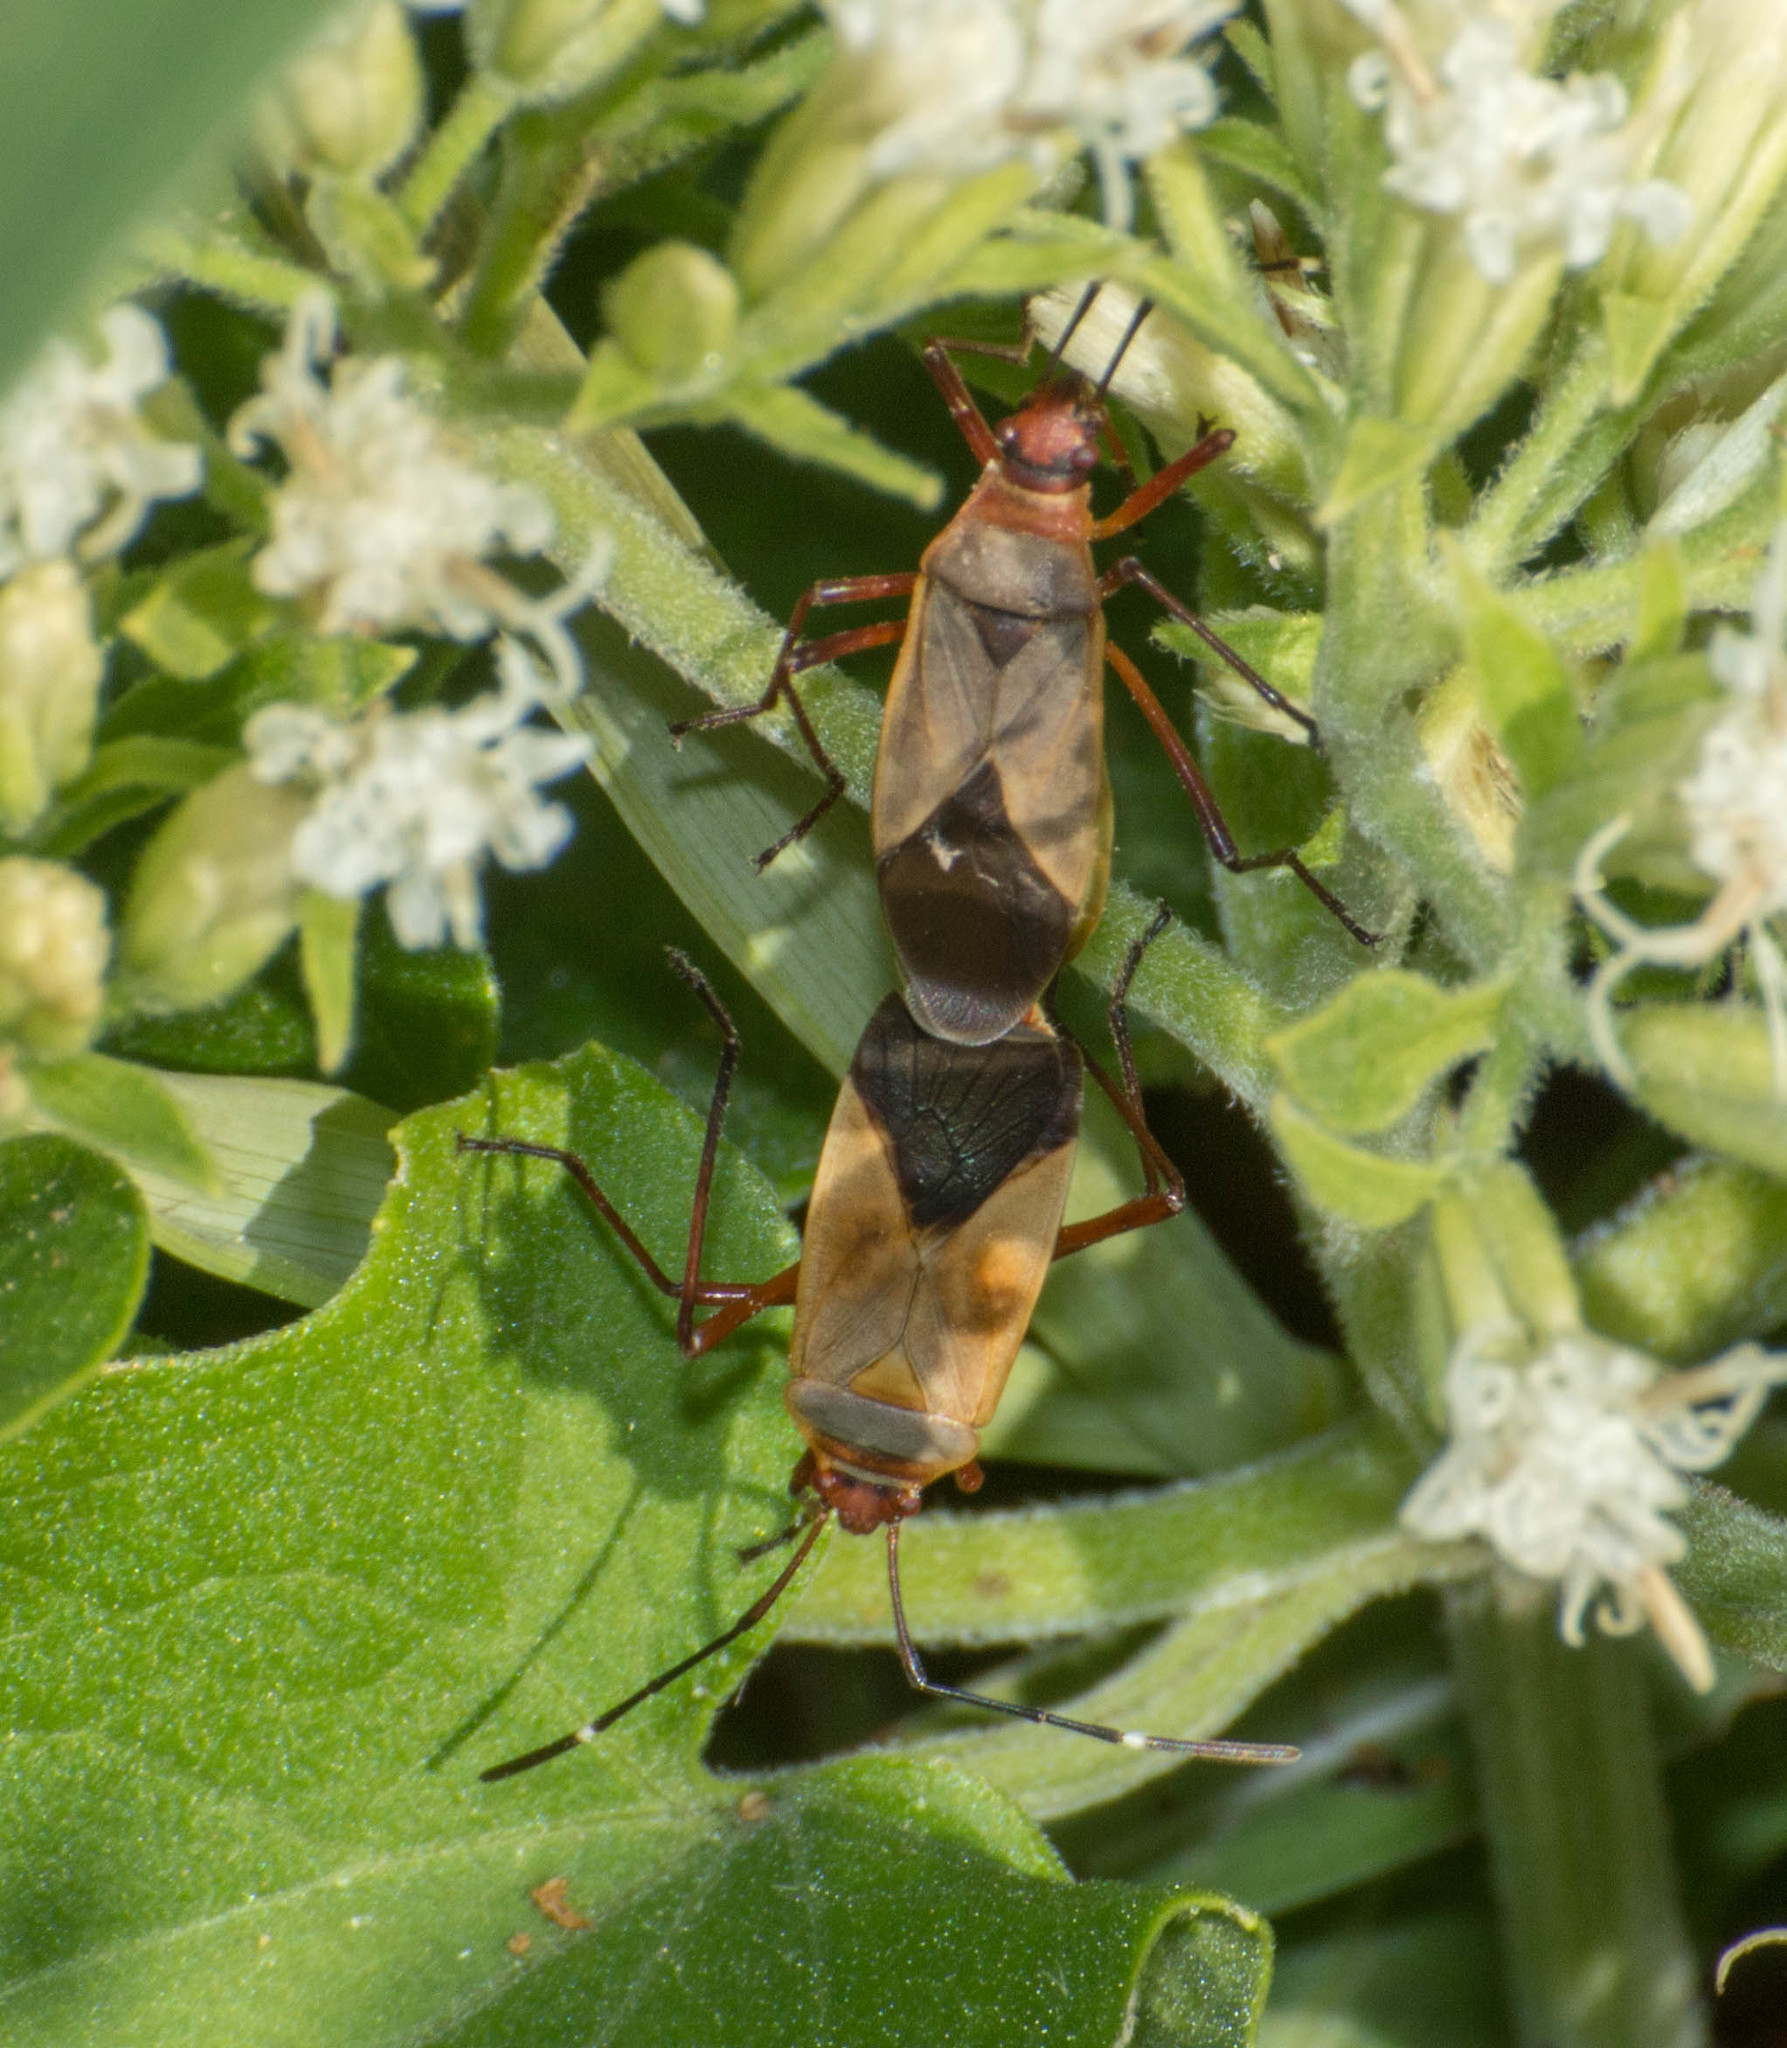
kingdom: Animalia
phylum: Arthropoda
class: Insecta
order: Hemiptera
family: Pyrrhocoridae
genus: Dysdercus
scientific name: Dysdercus
